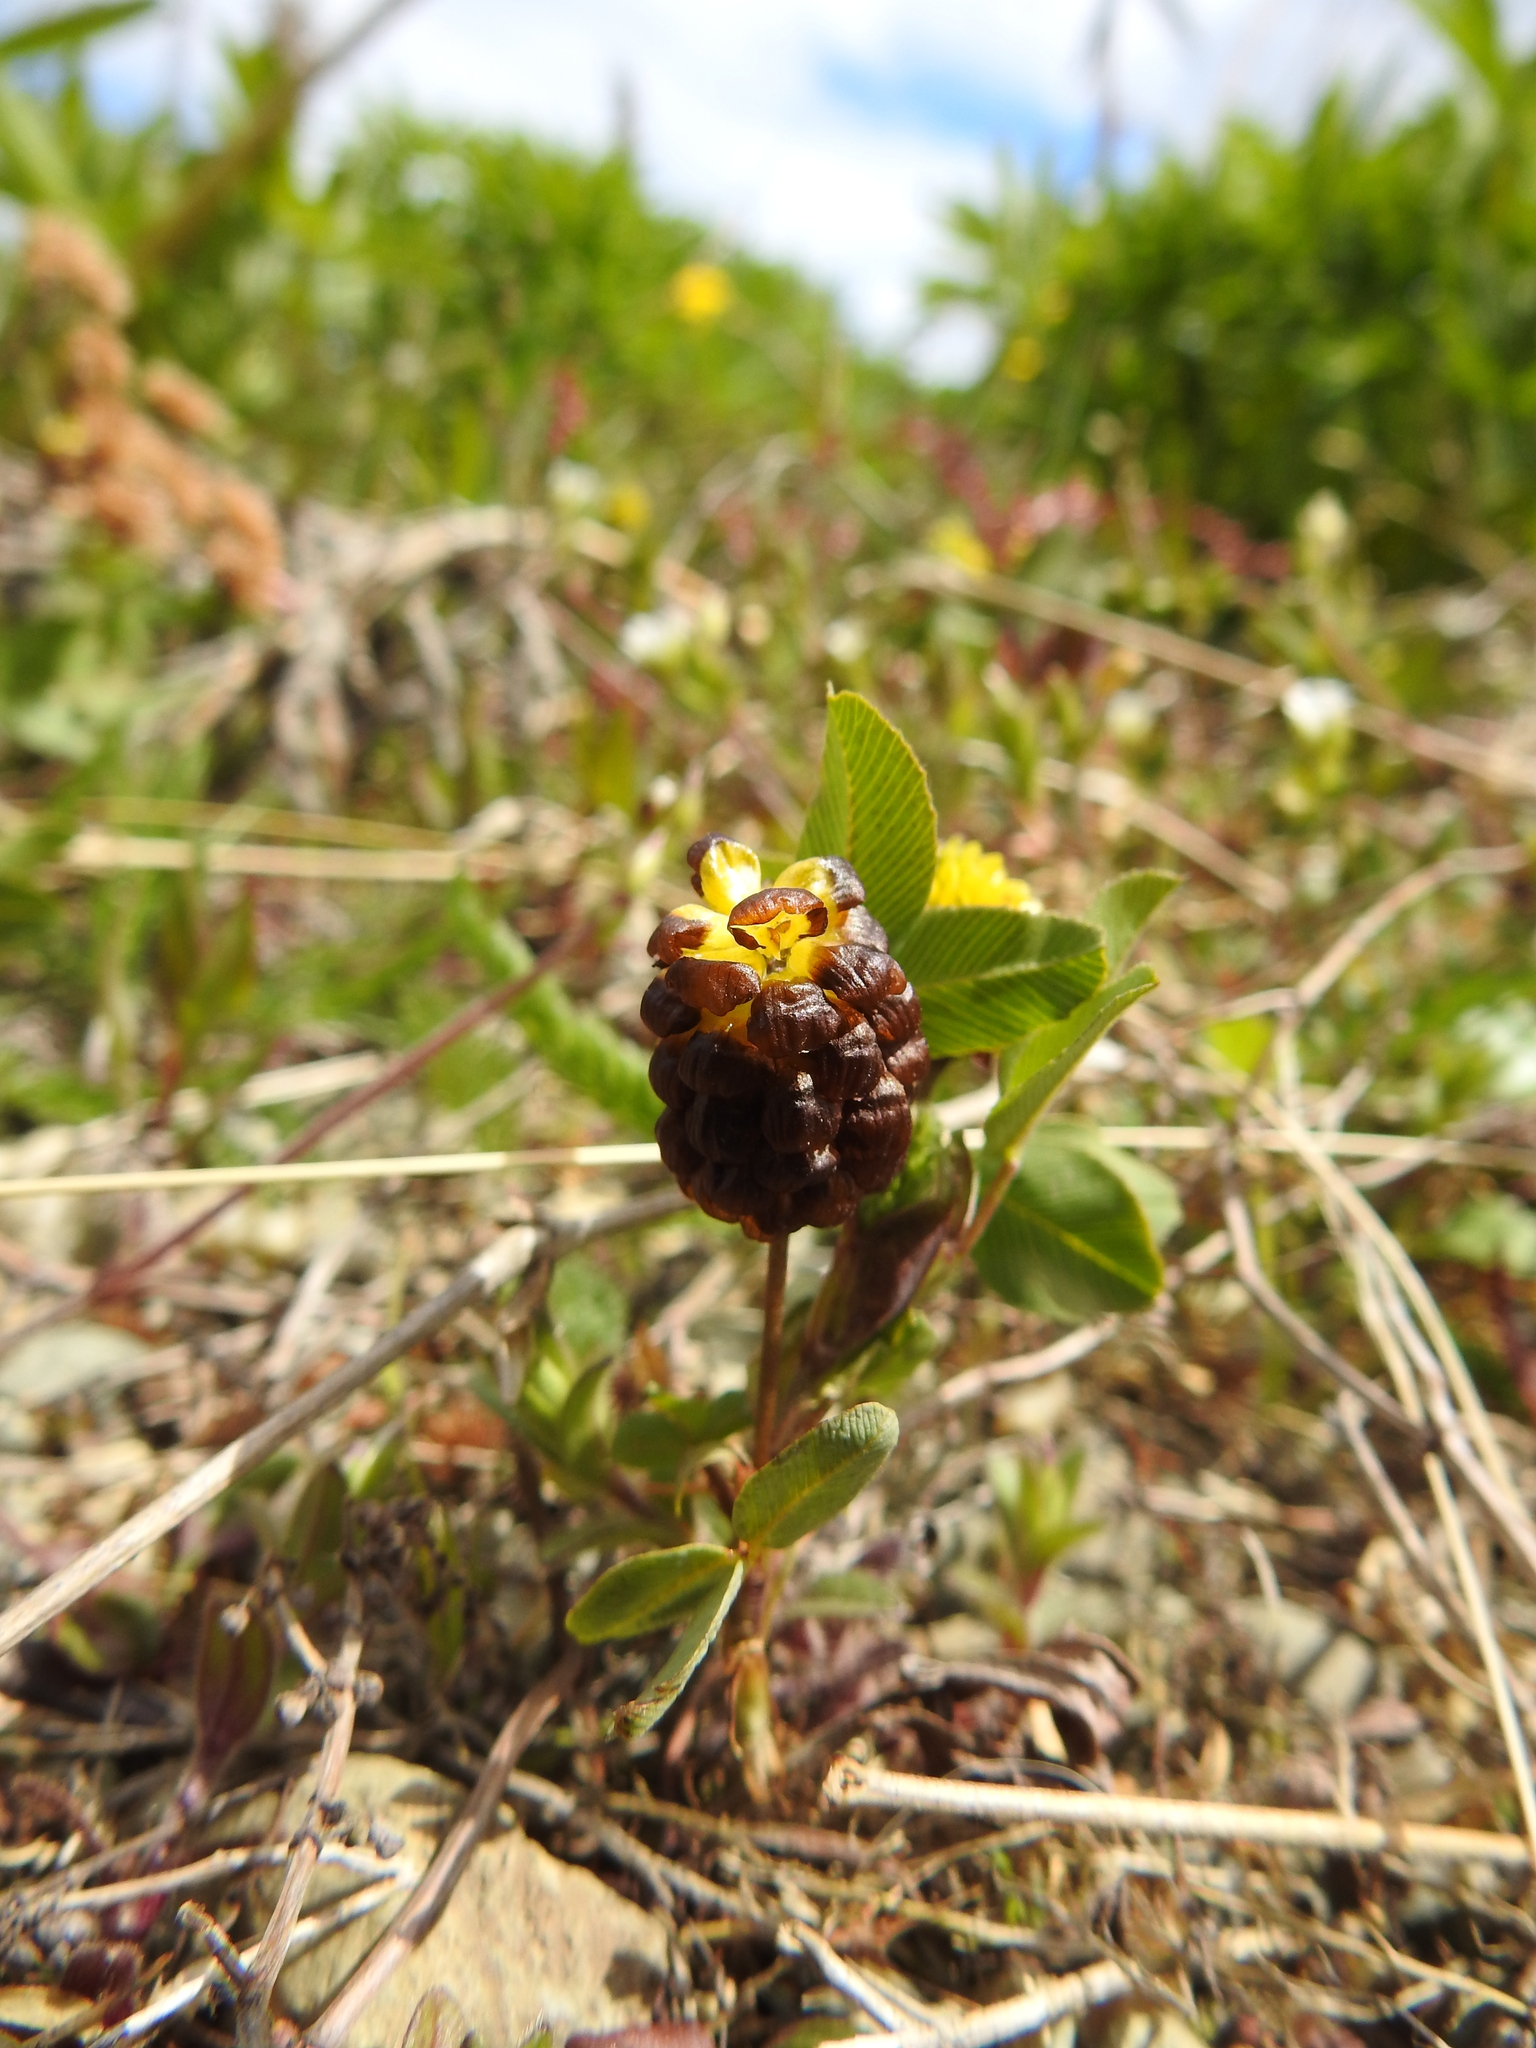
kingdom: Plantae
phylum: Tracheophyta
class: Magnoliopsida
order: Fabales
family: Fabaceae
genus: Trifolium
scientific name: Trifolium spadiceum
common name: Brown moor clover
